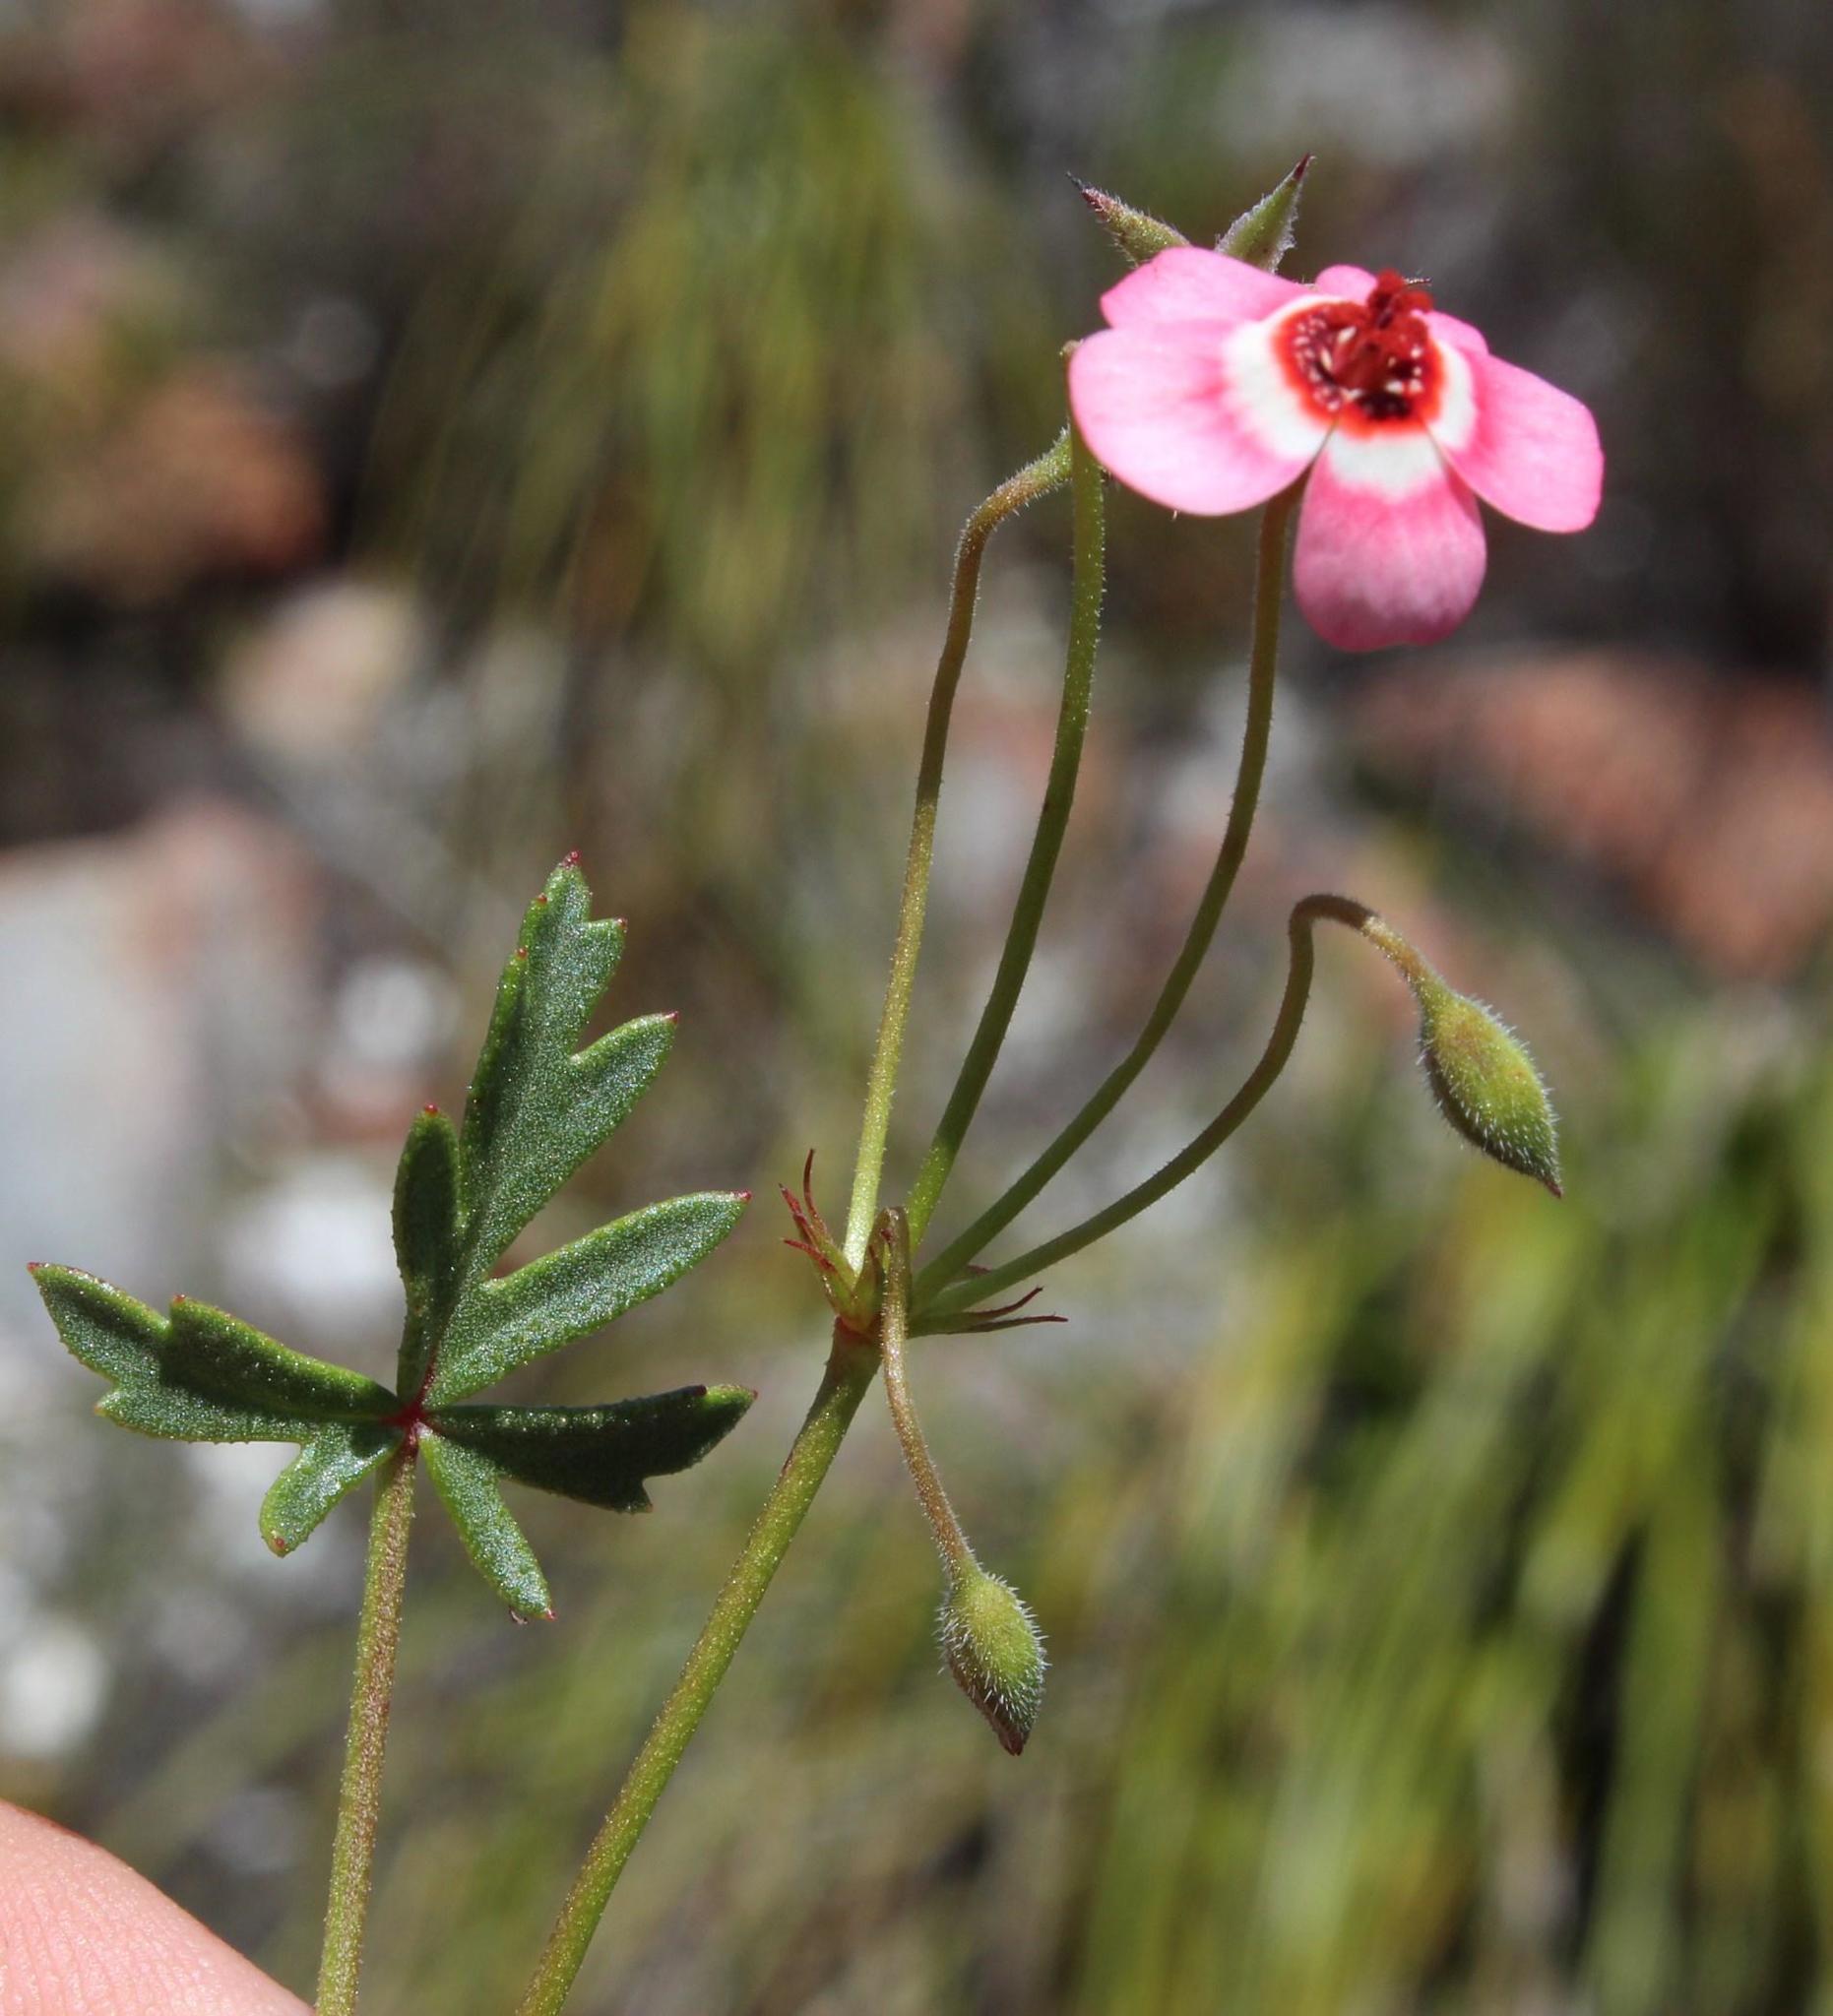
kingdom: Plantae
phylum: Tracheophyta
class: Magnoliopsida
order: Geraniales
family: Geraniaceae
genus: Pelargonium
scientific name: Pelargonium incarnatum
